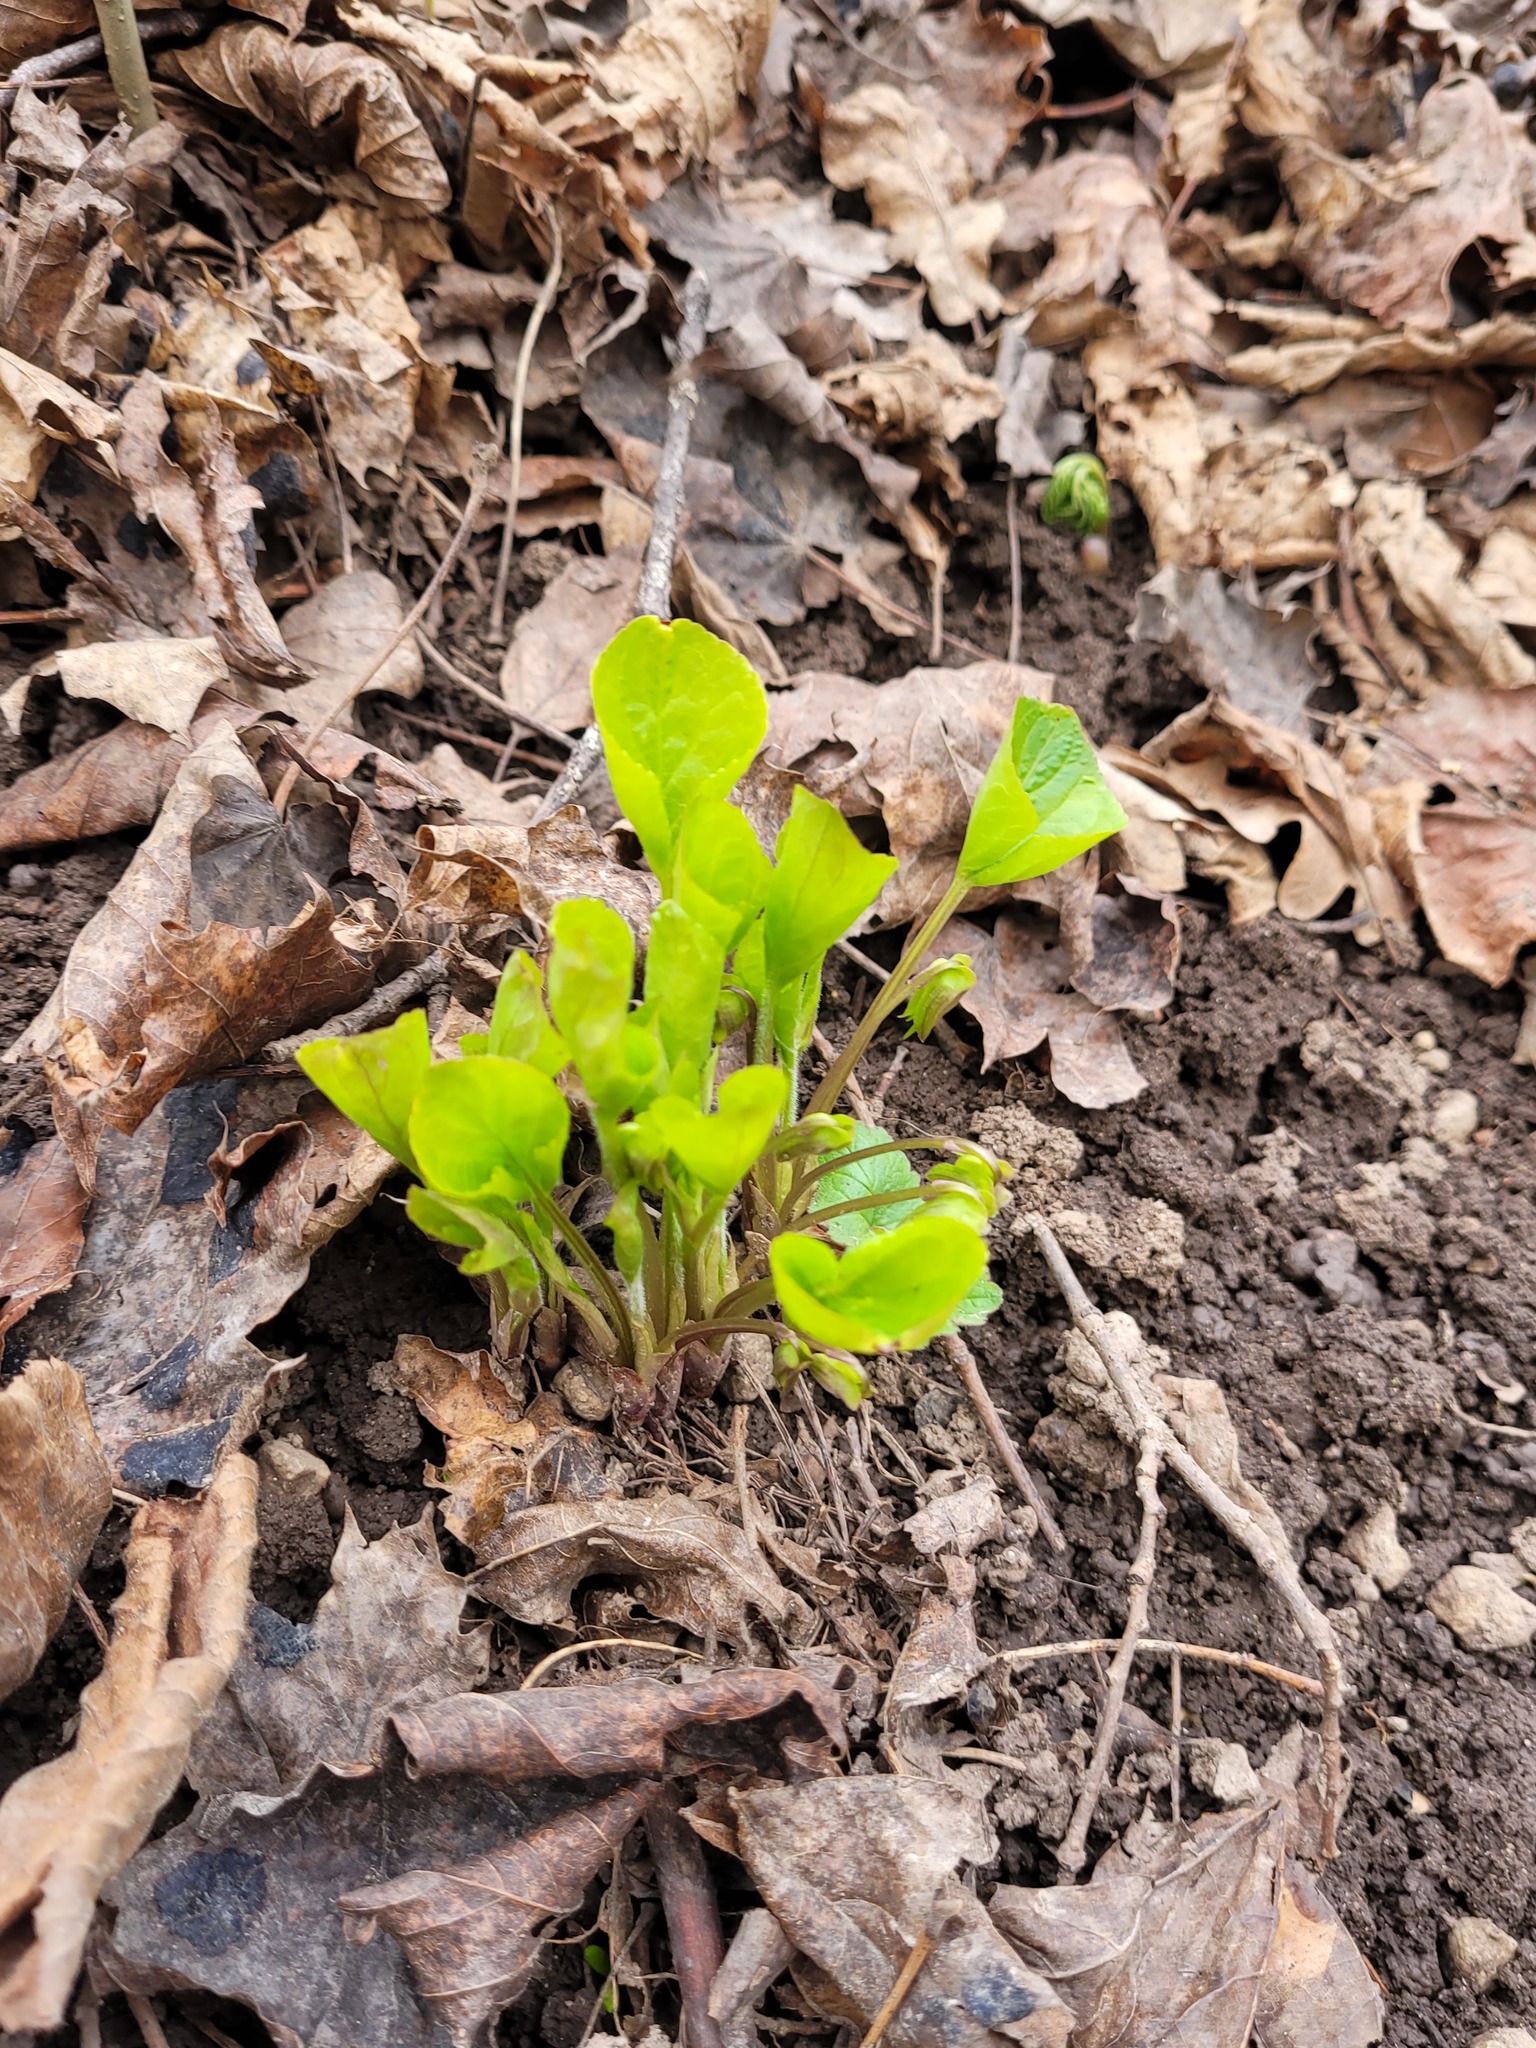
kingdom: Plantae
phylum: Tracheophyta
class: Magnoliopsida
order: Malpighiales
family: Violaceae
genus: Viola
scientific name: Viola mirabilis
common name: Wonder violet
